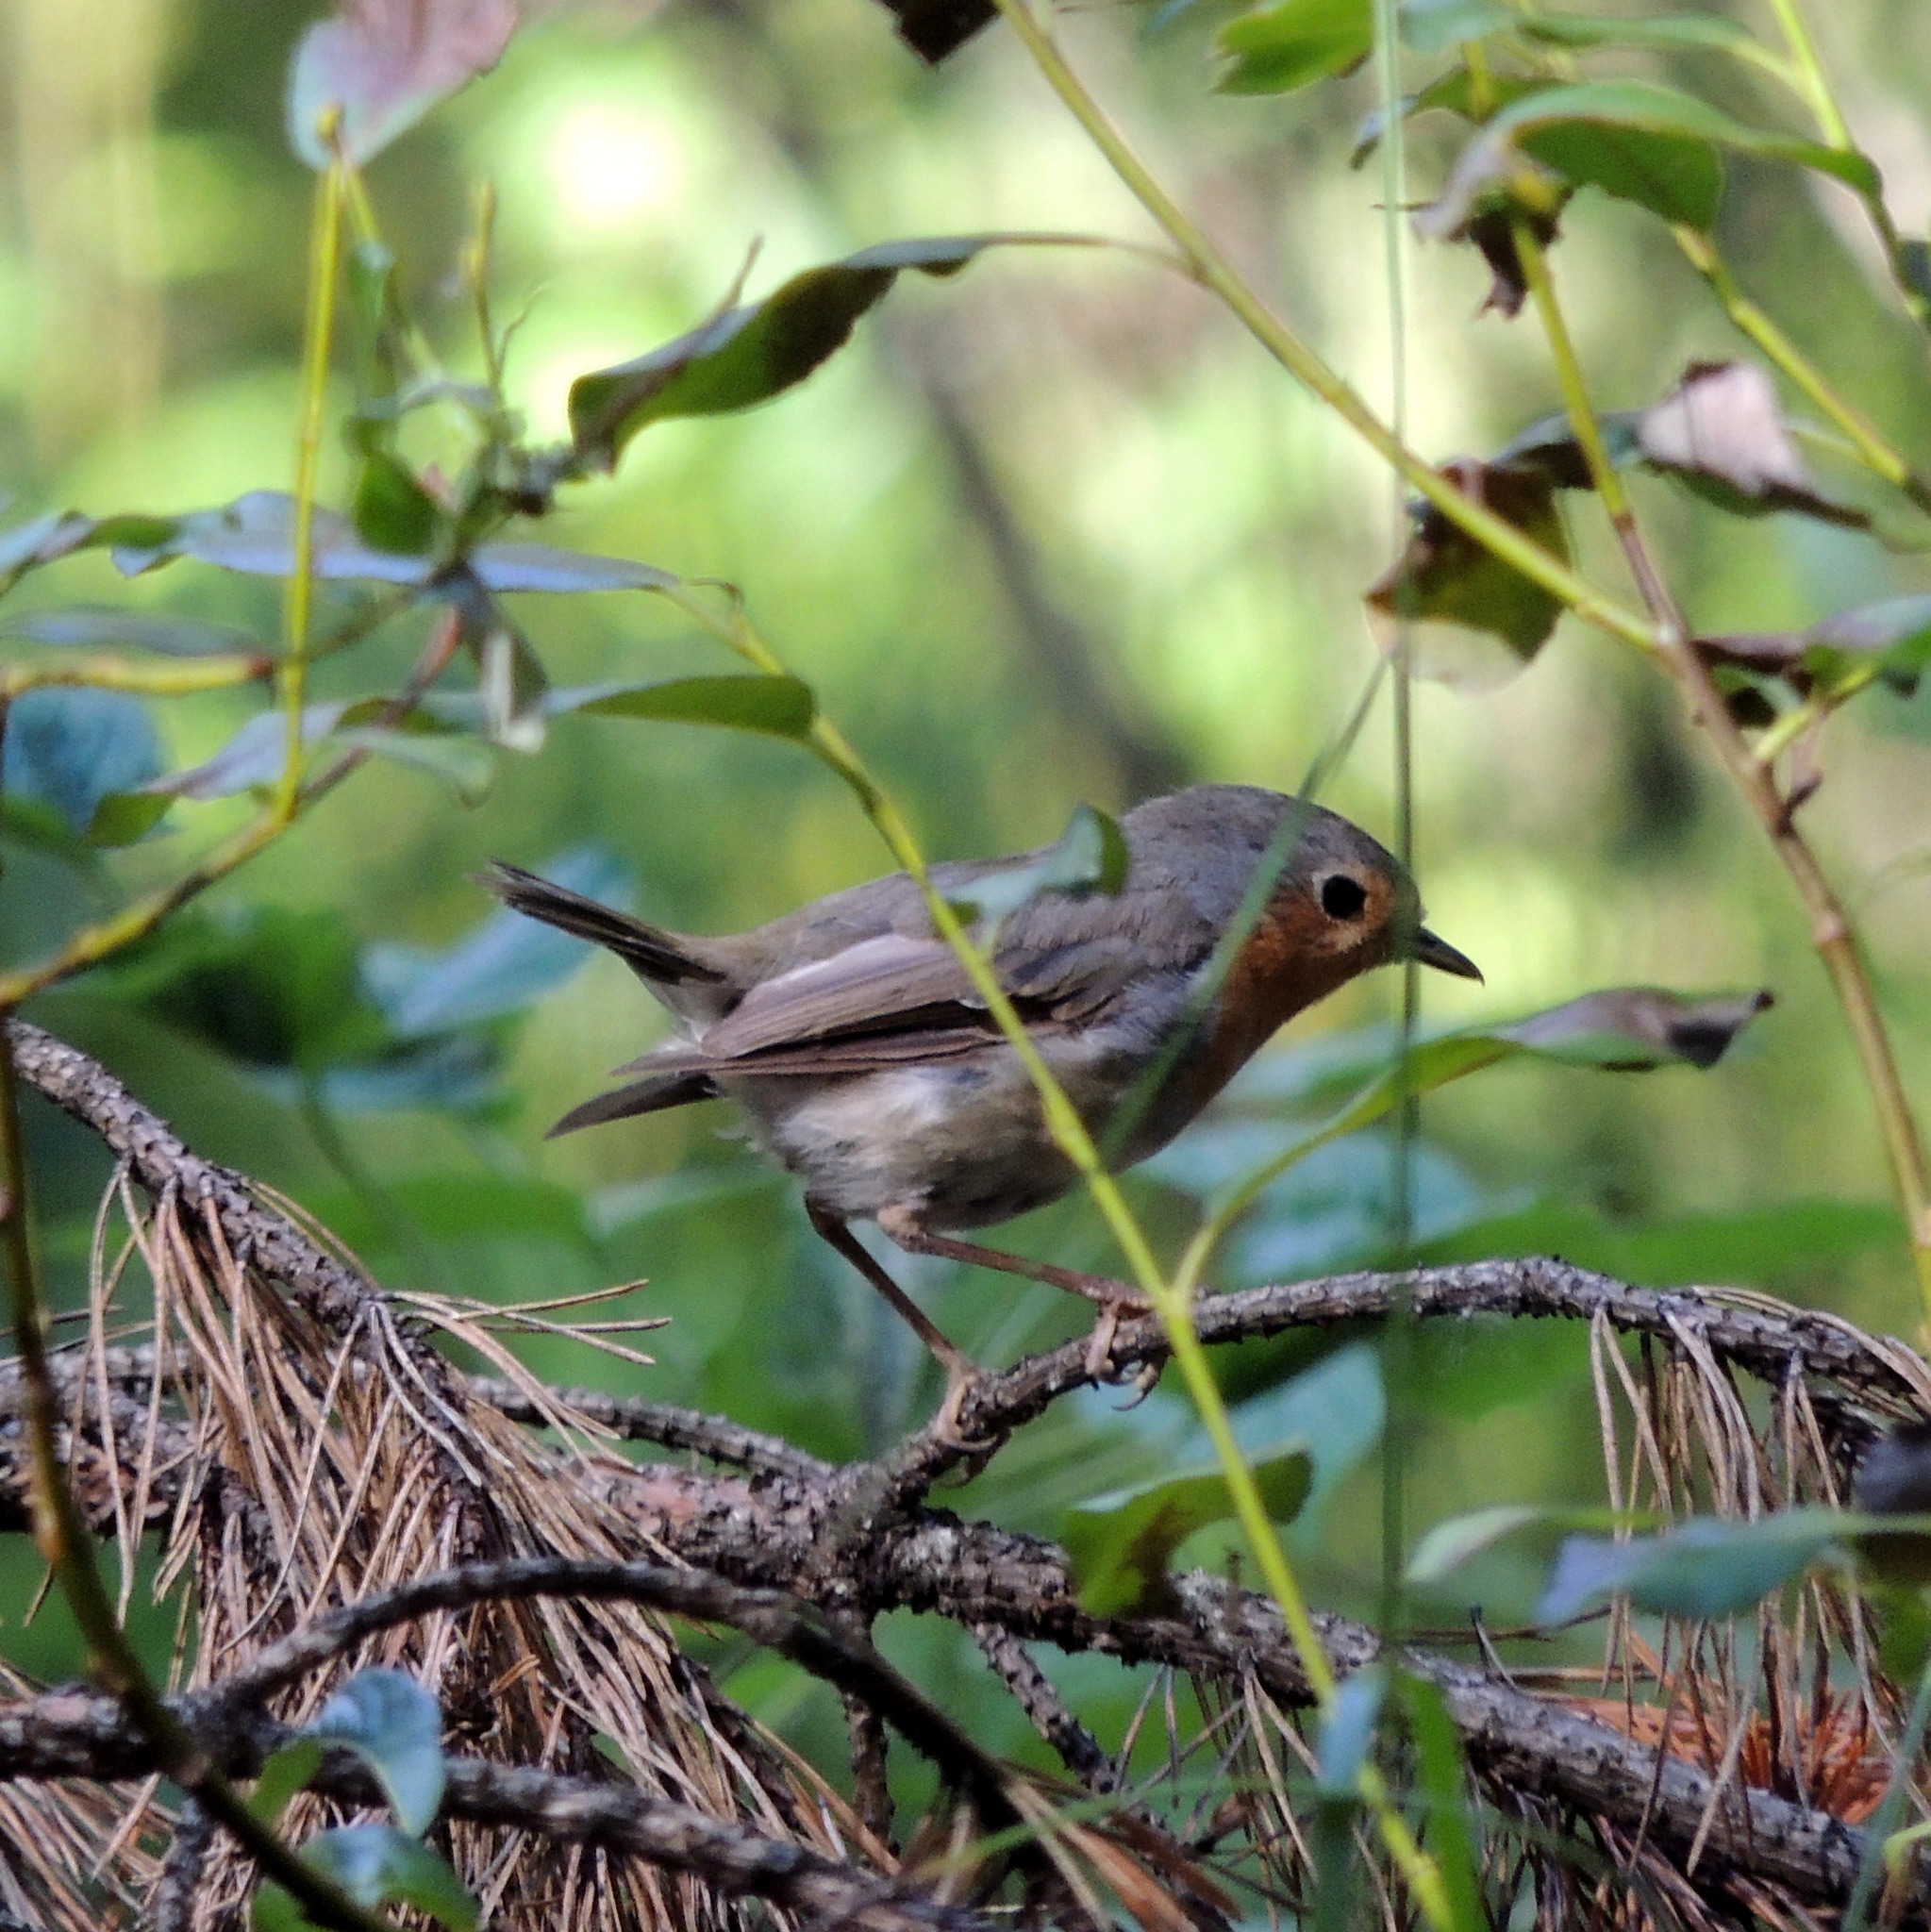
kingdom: Animalia
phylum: Chordata
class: Aves
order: Passeriformes
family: Muscicapidae
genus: Erithacus
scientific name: Erithacus rubecula
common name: European robin
